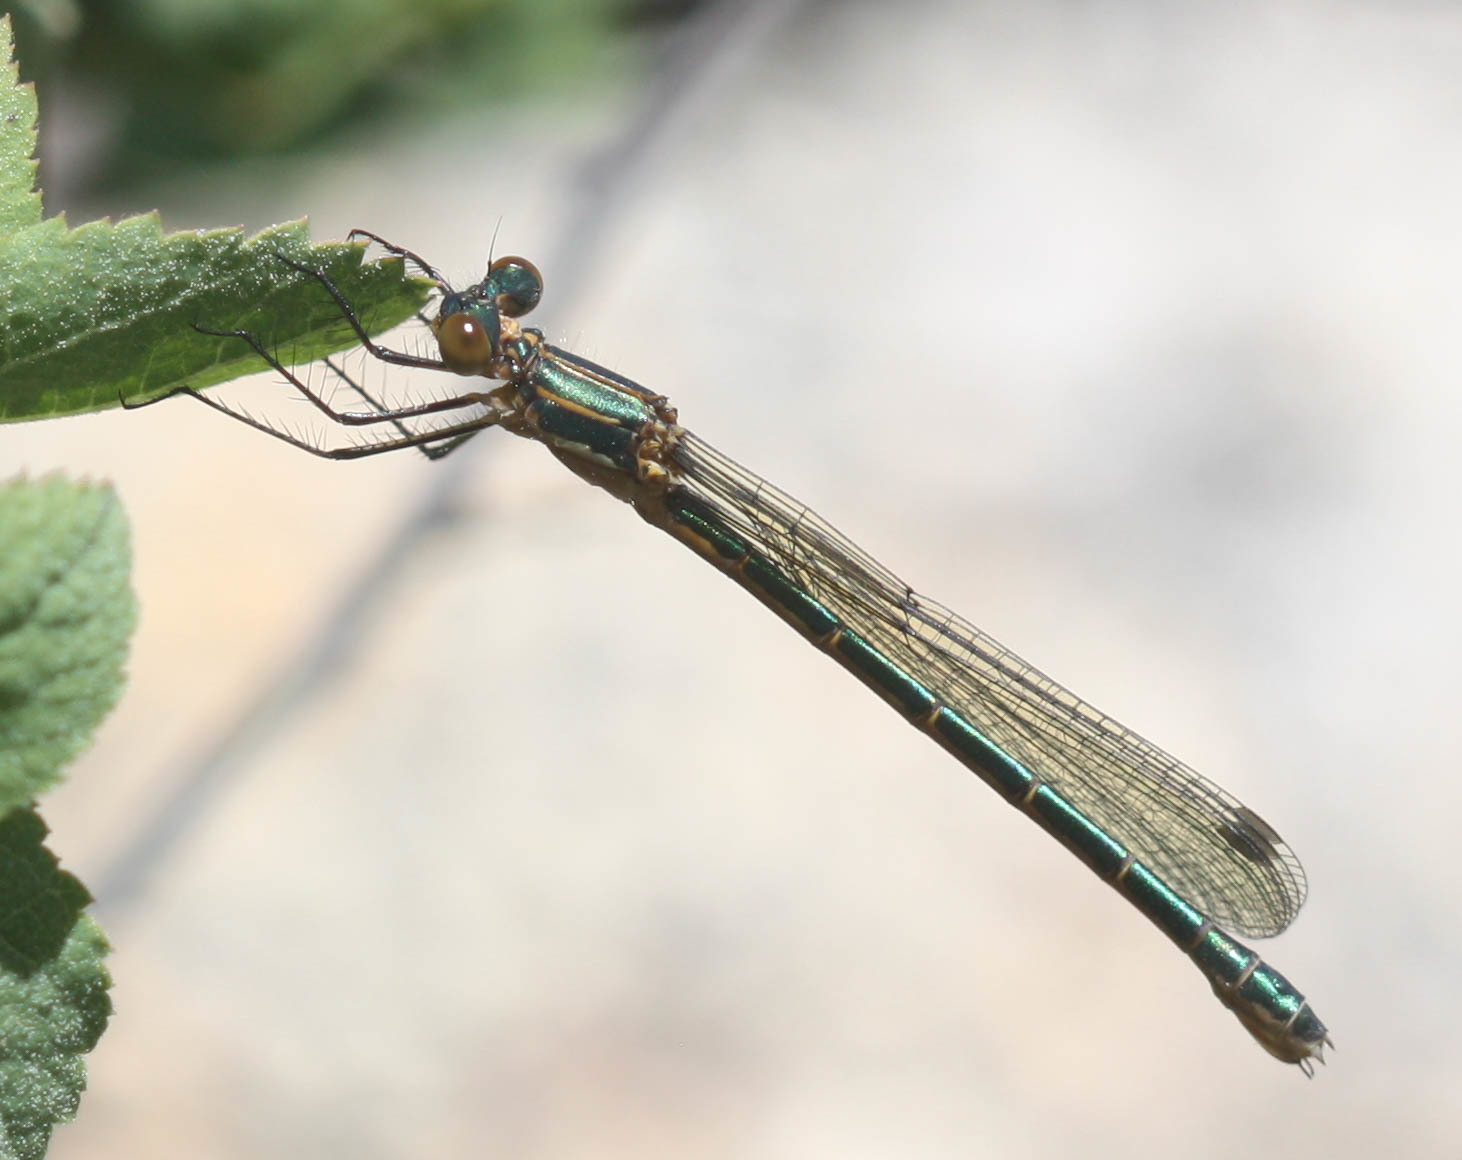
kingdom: Animalia
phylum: Arthropoda
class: Insecta
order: Odonata
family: Lestidae
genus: Lestes
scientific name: Lestes dryas
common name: Scarce emerald damselfly
